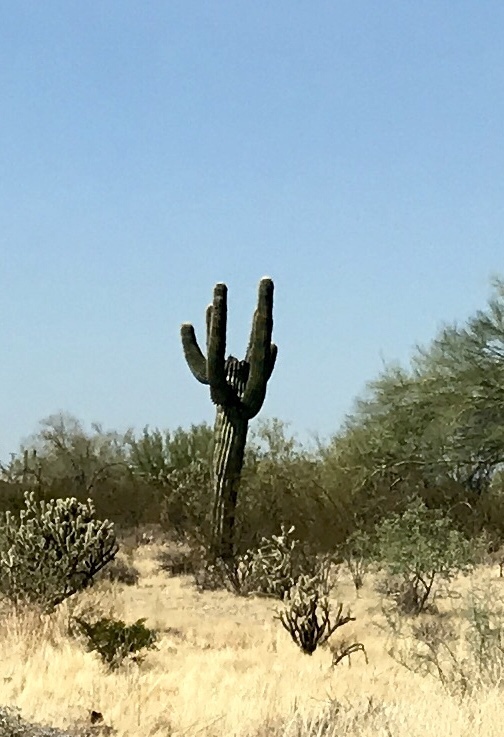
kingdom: Plantae
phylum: Tracheophyta
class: Magnoliopsida
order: Caryophyllales
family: Cactaceae
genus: Carnegiea
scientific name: Carnegiea gigantea
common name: Saguaro
